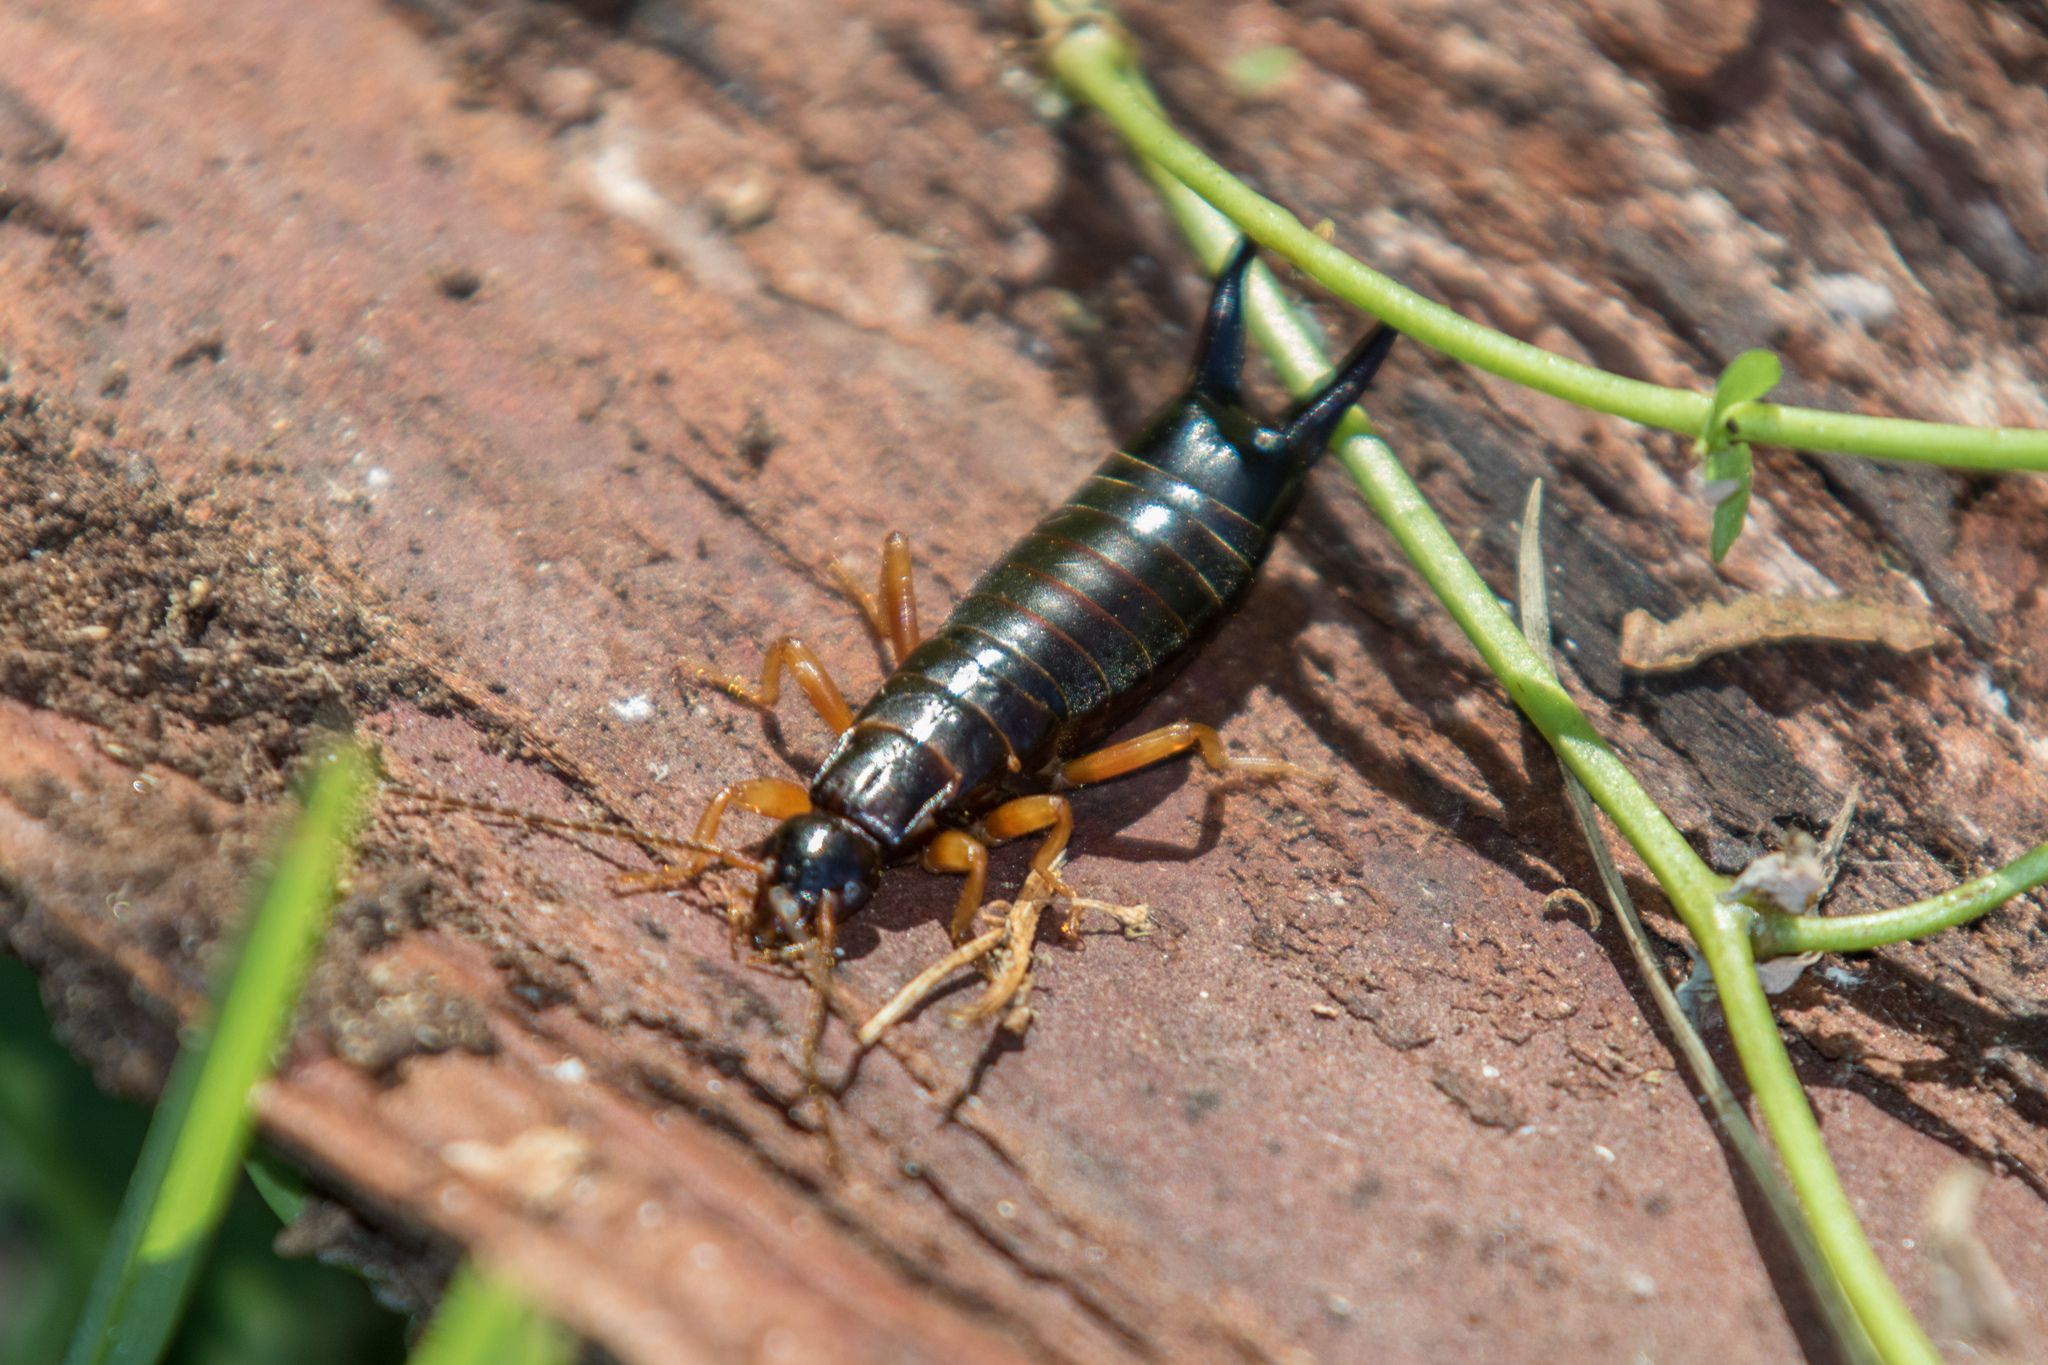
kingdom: Animalia
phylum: Arthropoda
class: Insecta
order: Dermaptera
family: Anisolabididae
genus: Anisolabis
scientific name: Anisolabis littorea
